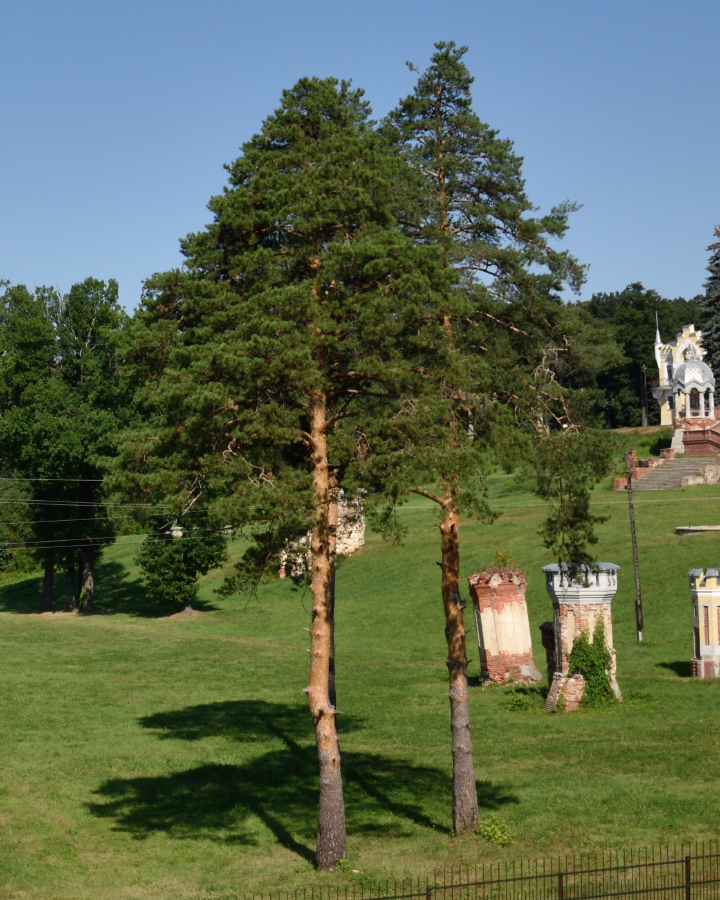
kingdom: Plantae
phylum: Tracheophyta
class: Pinopsida
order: Pinales
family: Pinaceae
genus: Pinus
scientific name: Pinus sylvestris
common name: Scots pine
